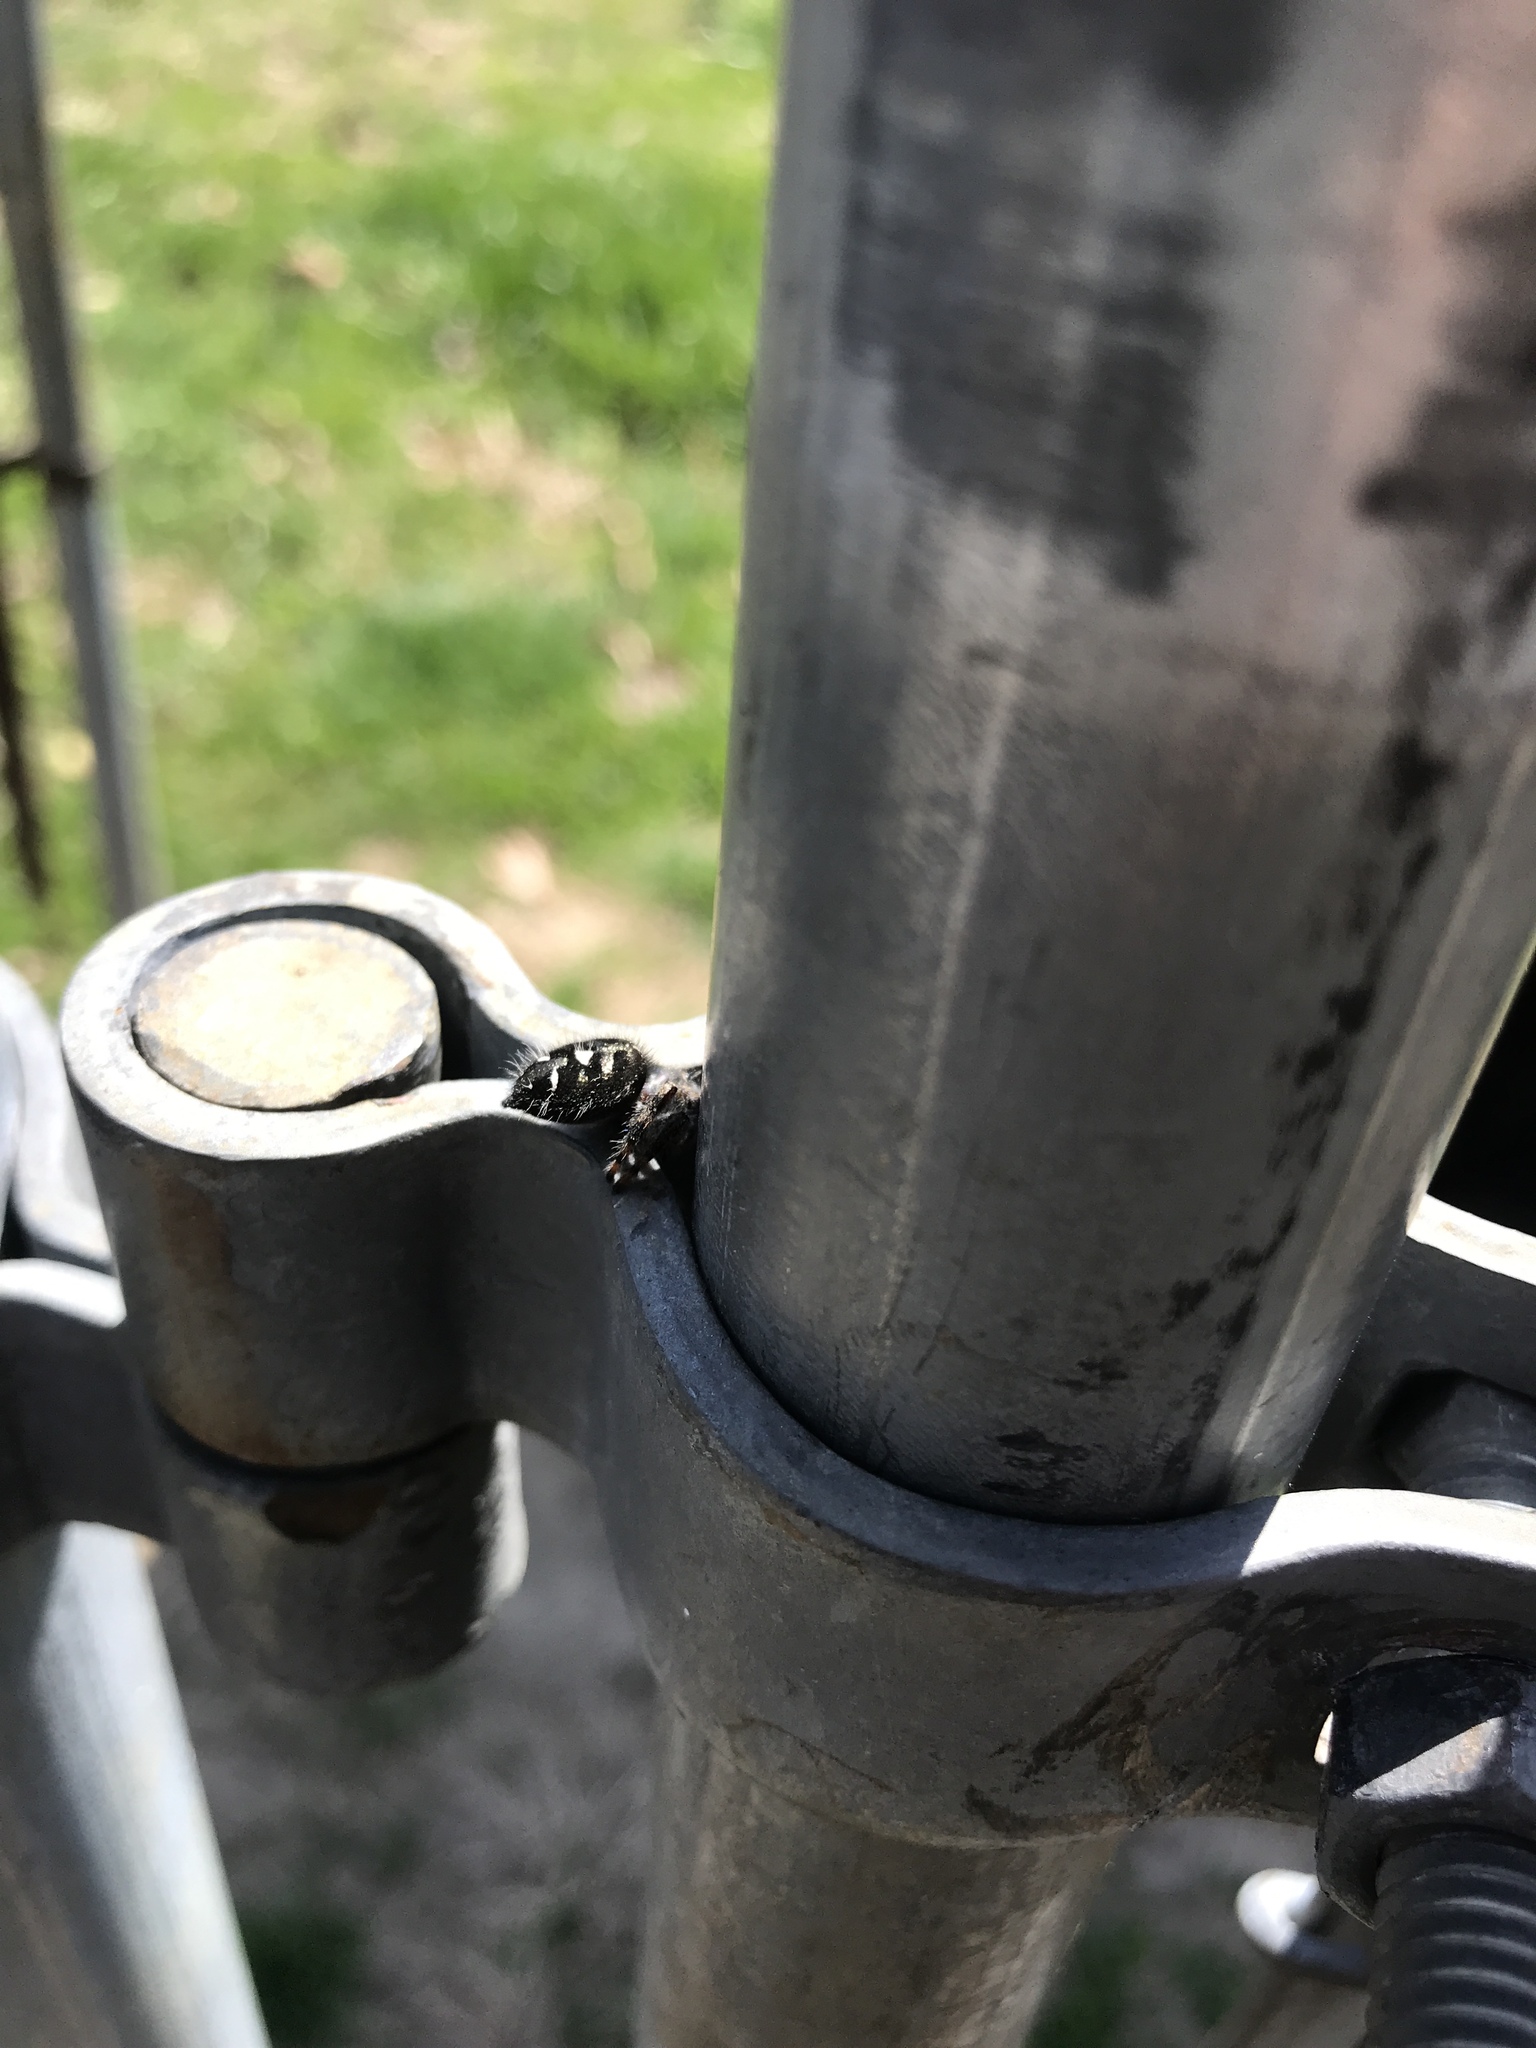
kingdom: Animalia
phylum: Arthropoda
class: Arachnida
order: Araneae
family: Salticidae
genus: Phidippus
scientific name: Phidippus audax
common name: Bold jumper
